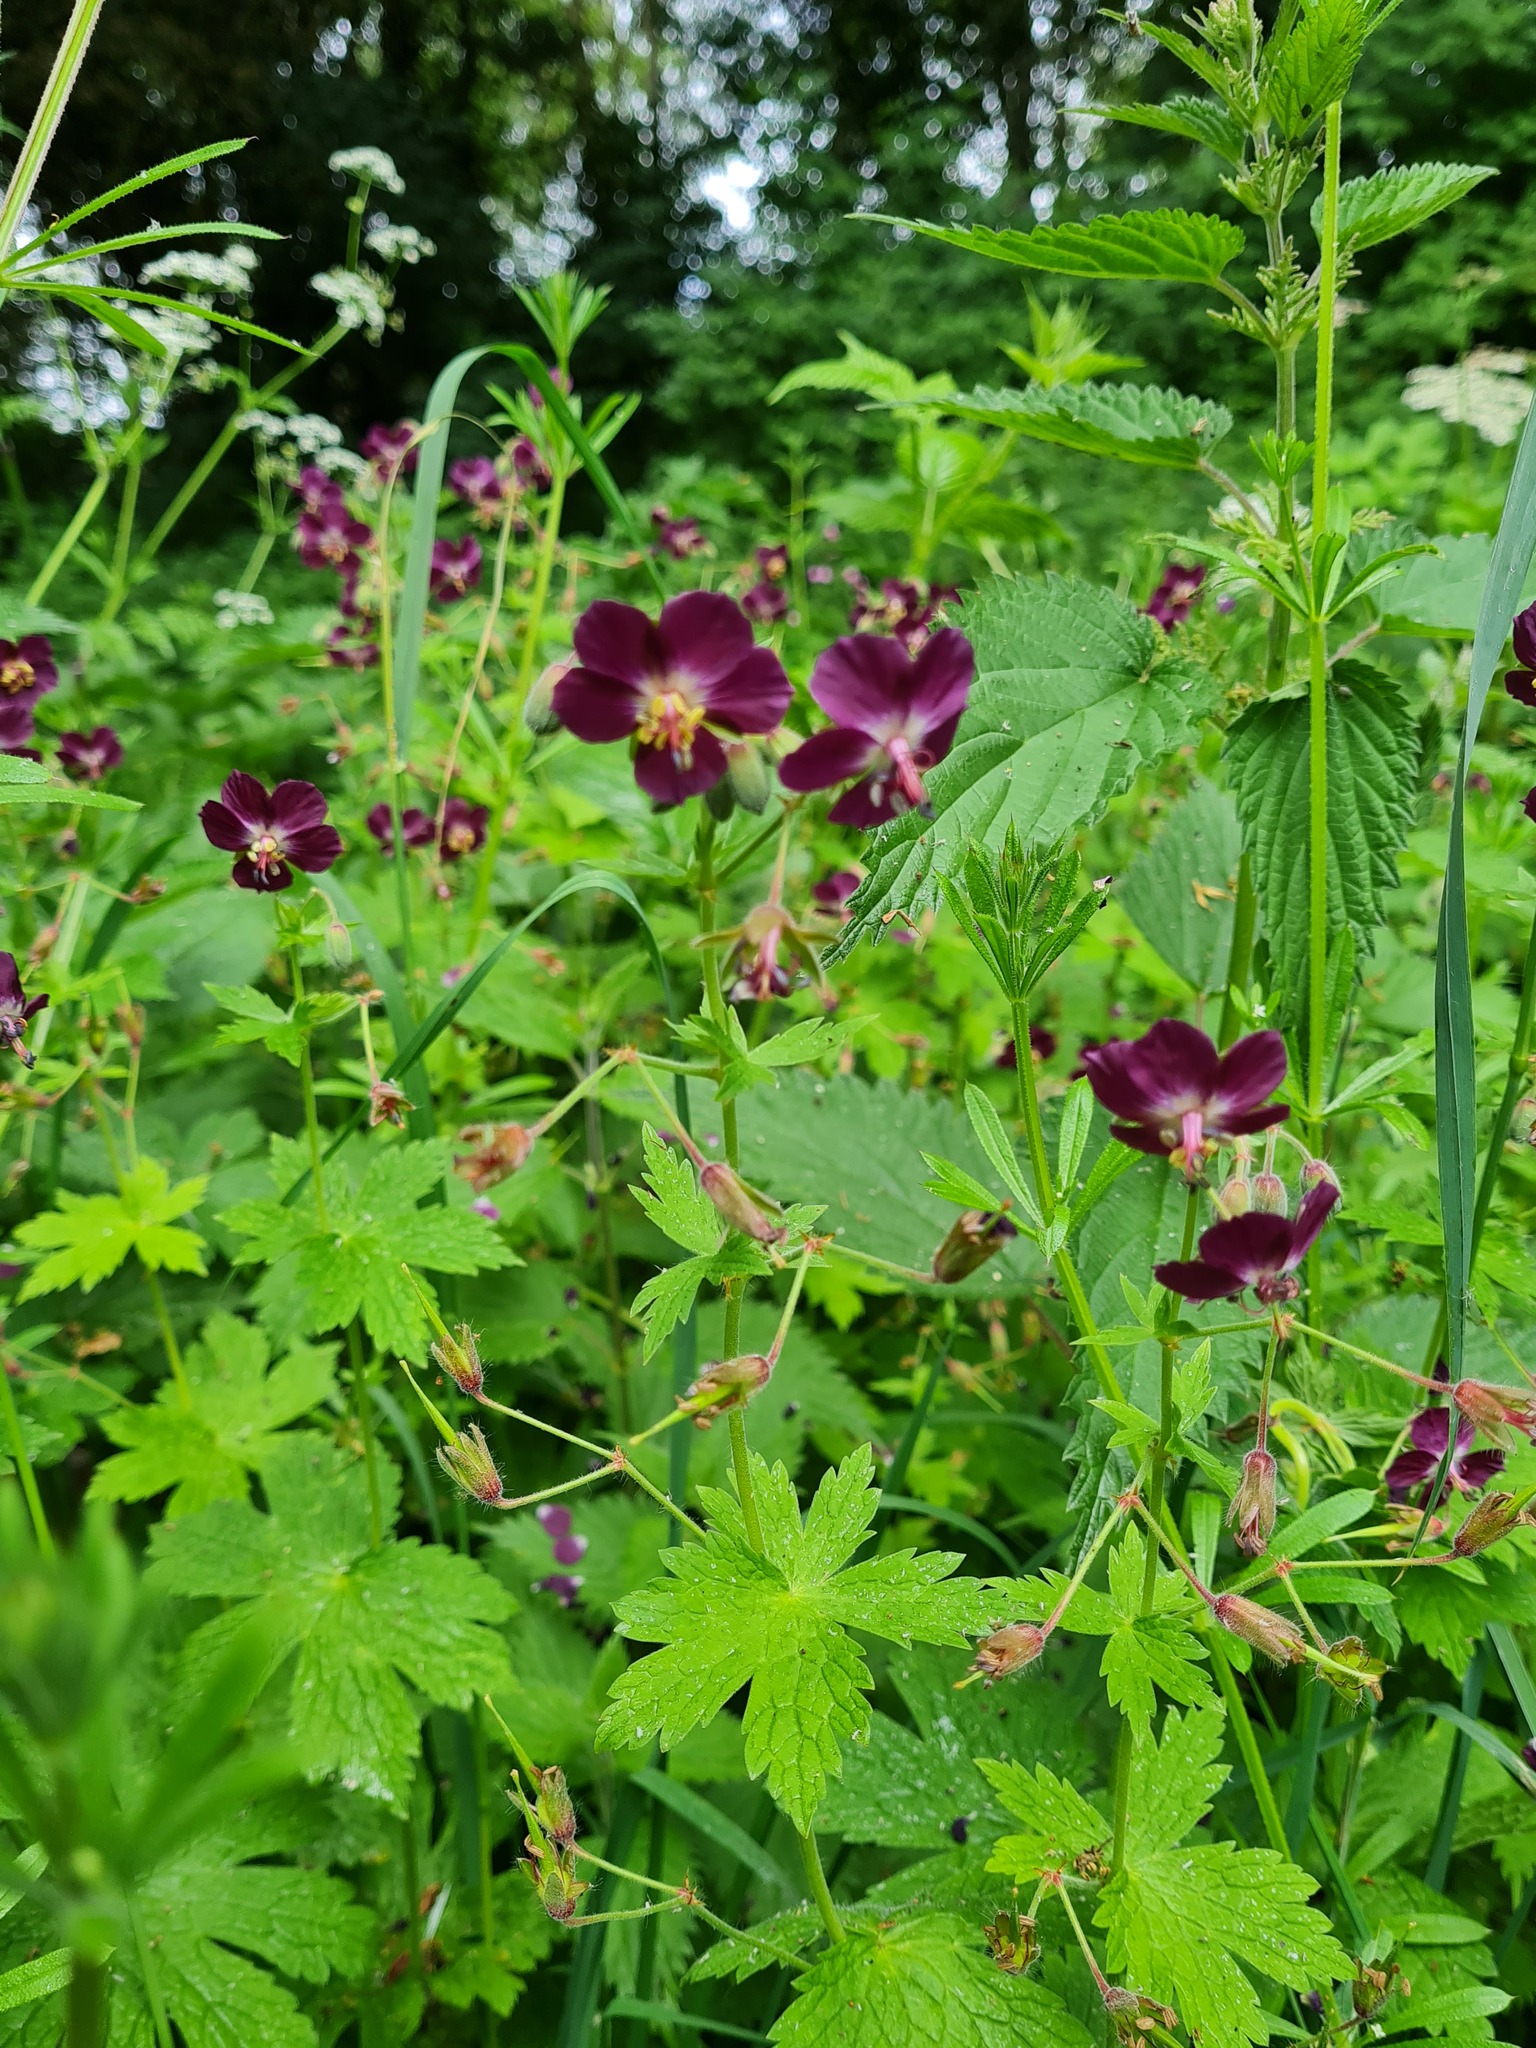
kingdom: Plantae
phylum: Tracheophyta
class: Magnoliopsida
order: Geraniales
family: Geraniaceae
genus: Geranium
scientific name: Geranium phaeum
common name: Dusky crane's-bill
